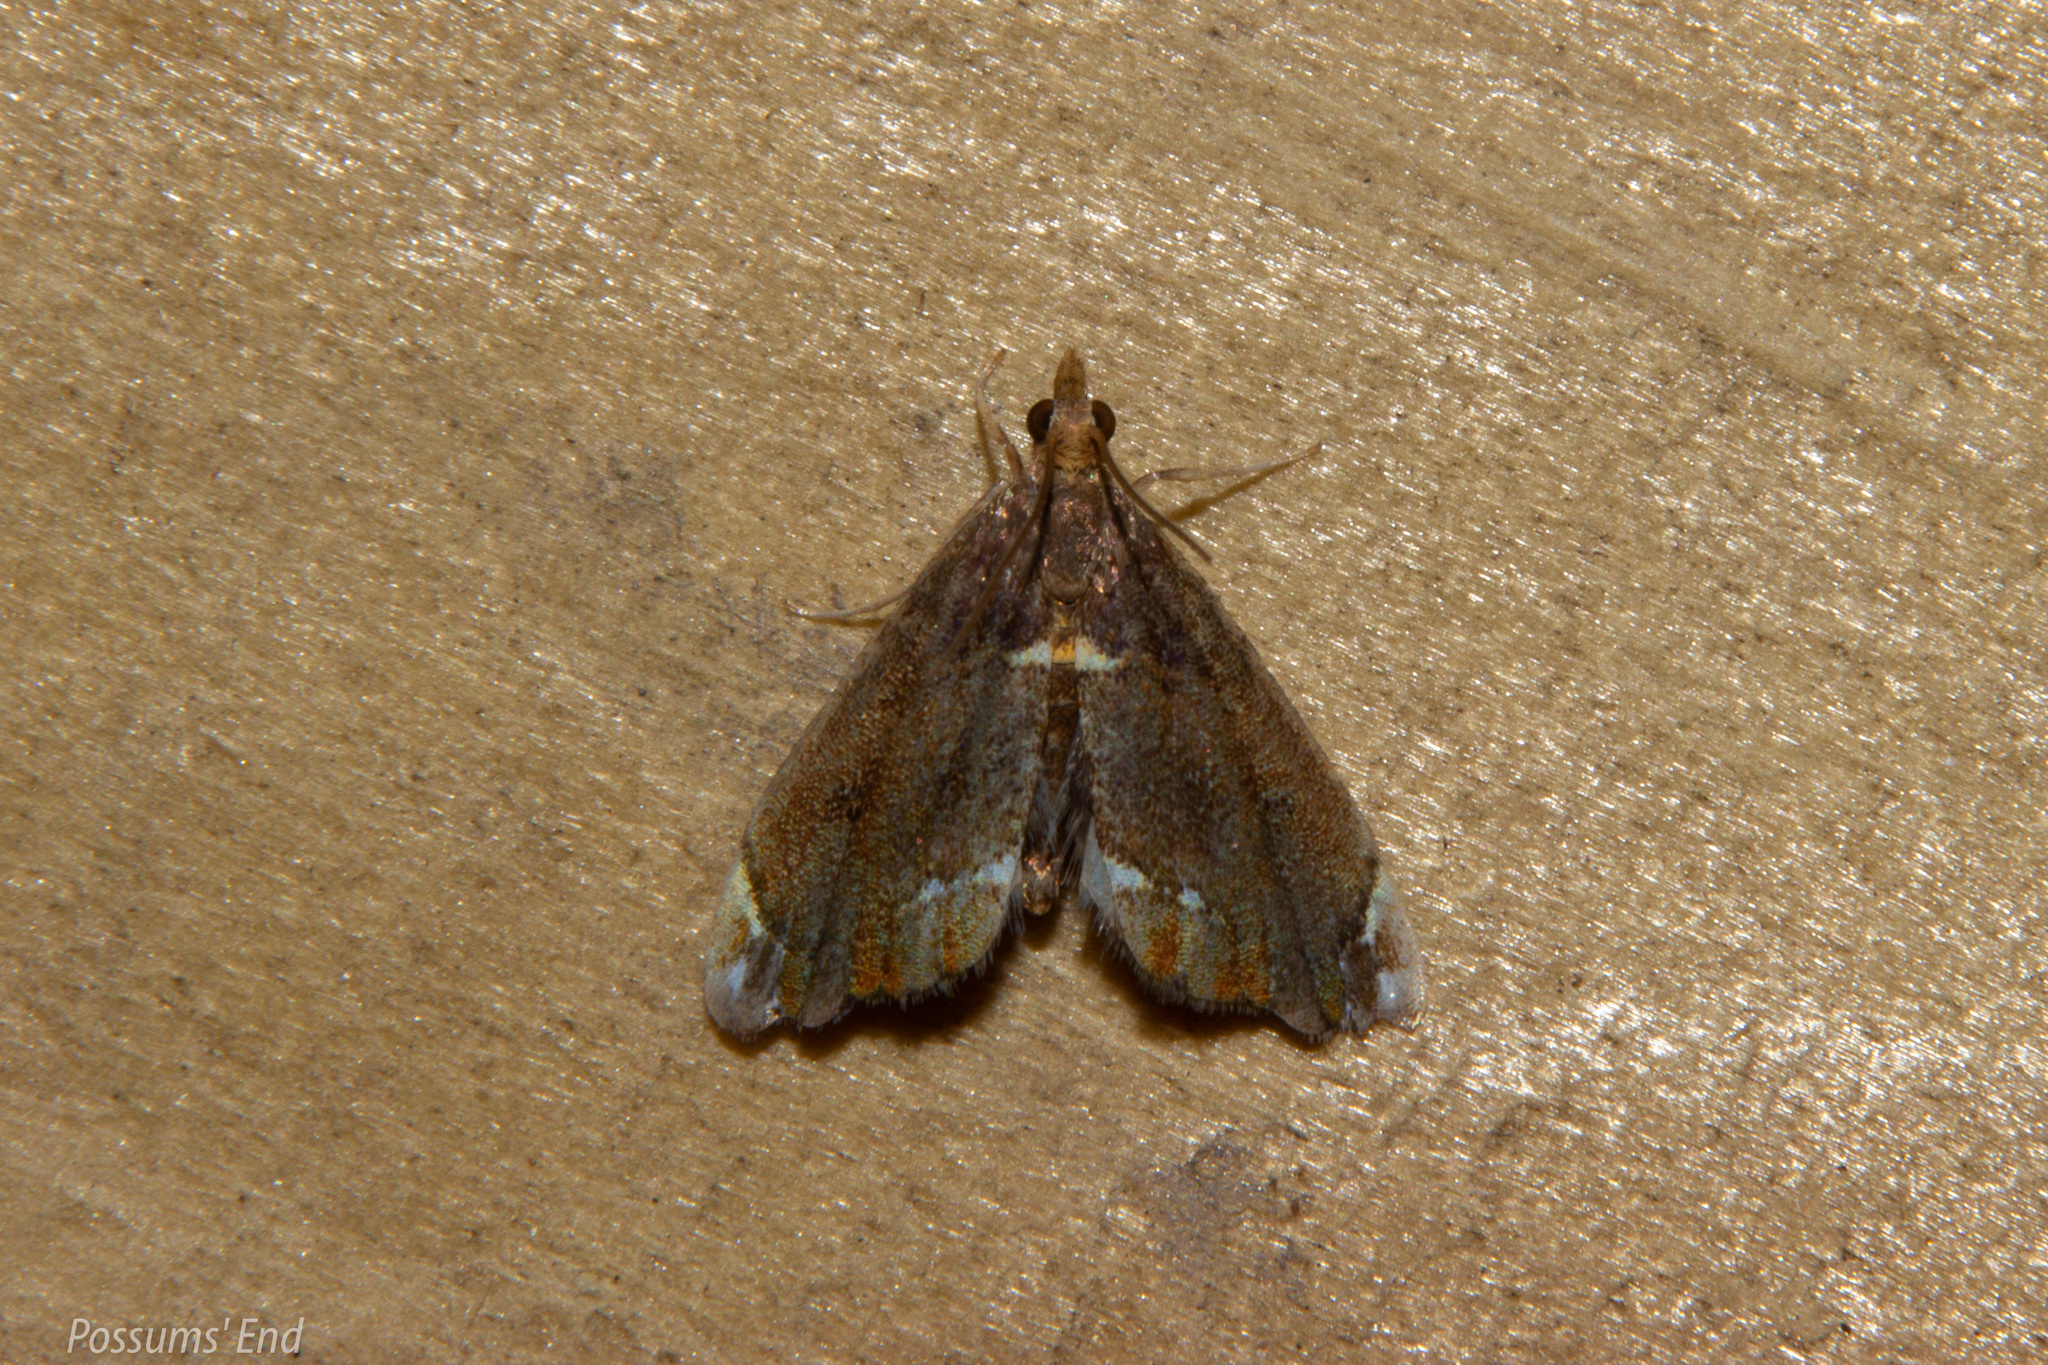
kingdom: Animalia
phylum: Arthropoda
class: Insecta
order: Lepidoptera
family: Crambidae
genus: Glaucocharis
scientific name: Glaucocharis pyrsophanes
